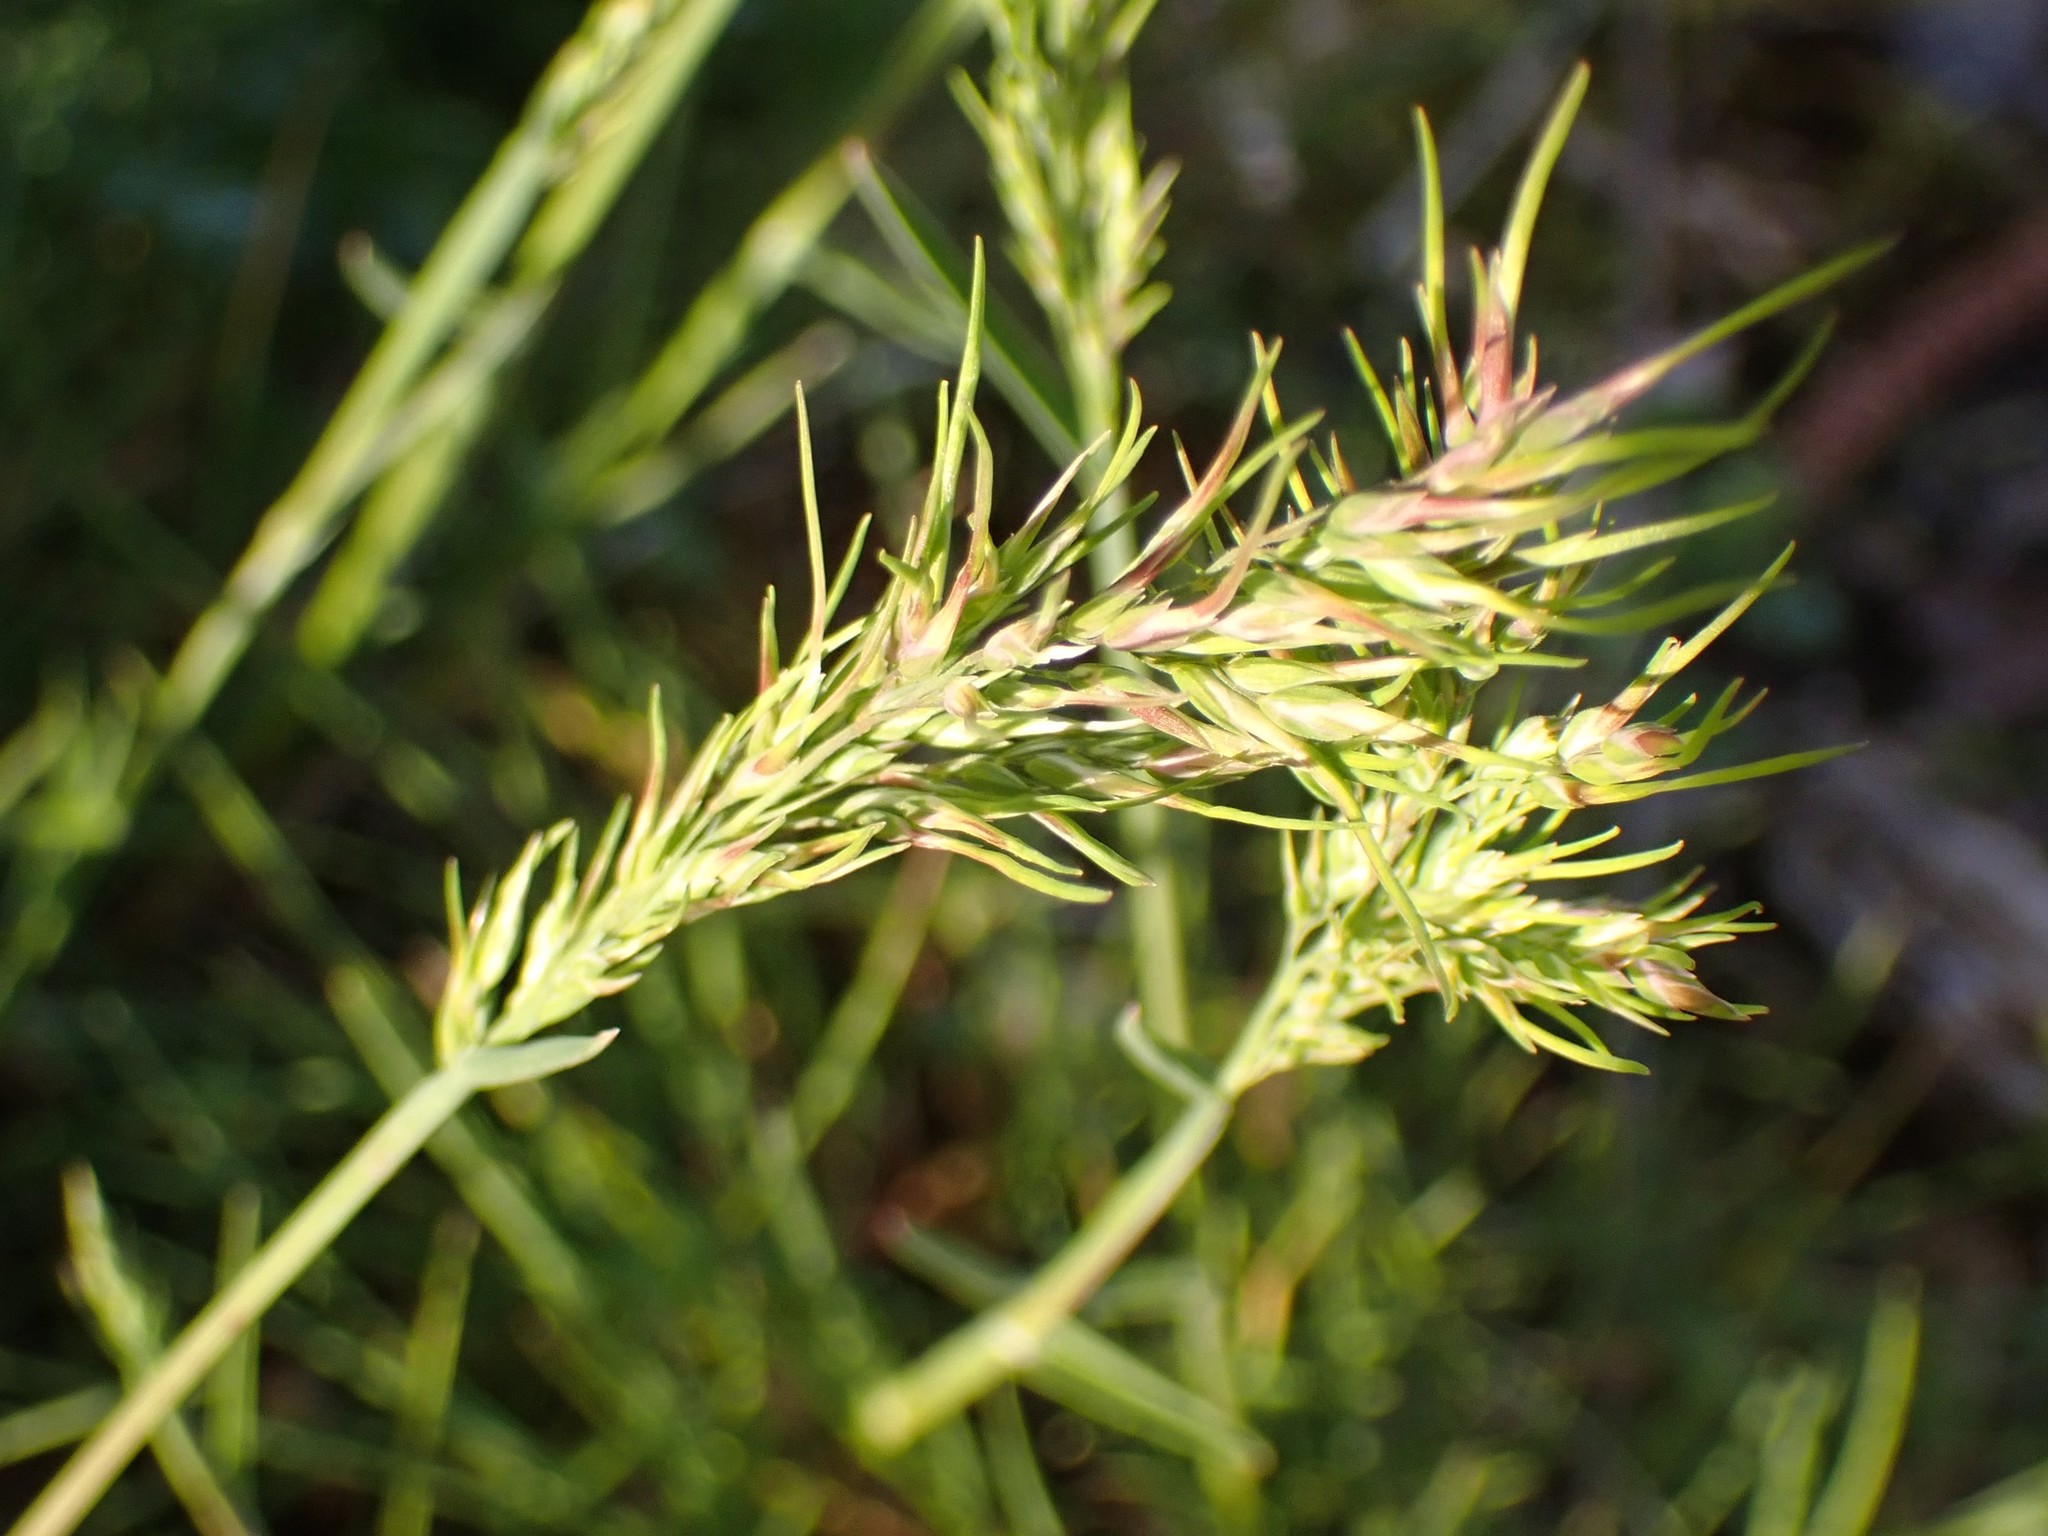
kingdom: Plantae
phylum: Tracheophyta
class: Liliopsida
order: Poales
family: Poaceae
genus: Poa
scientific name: Poa bulbosa
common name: Bulbous bluegrass
